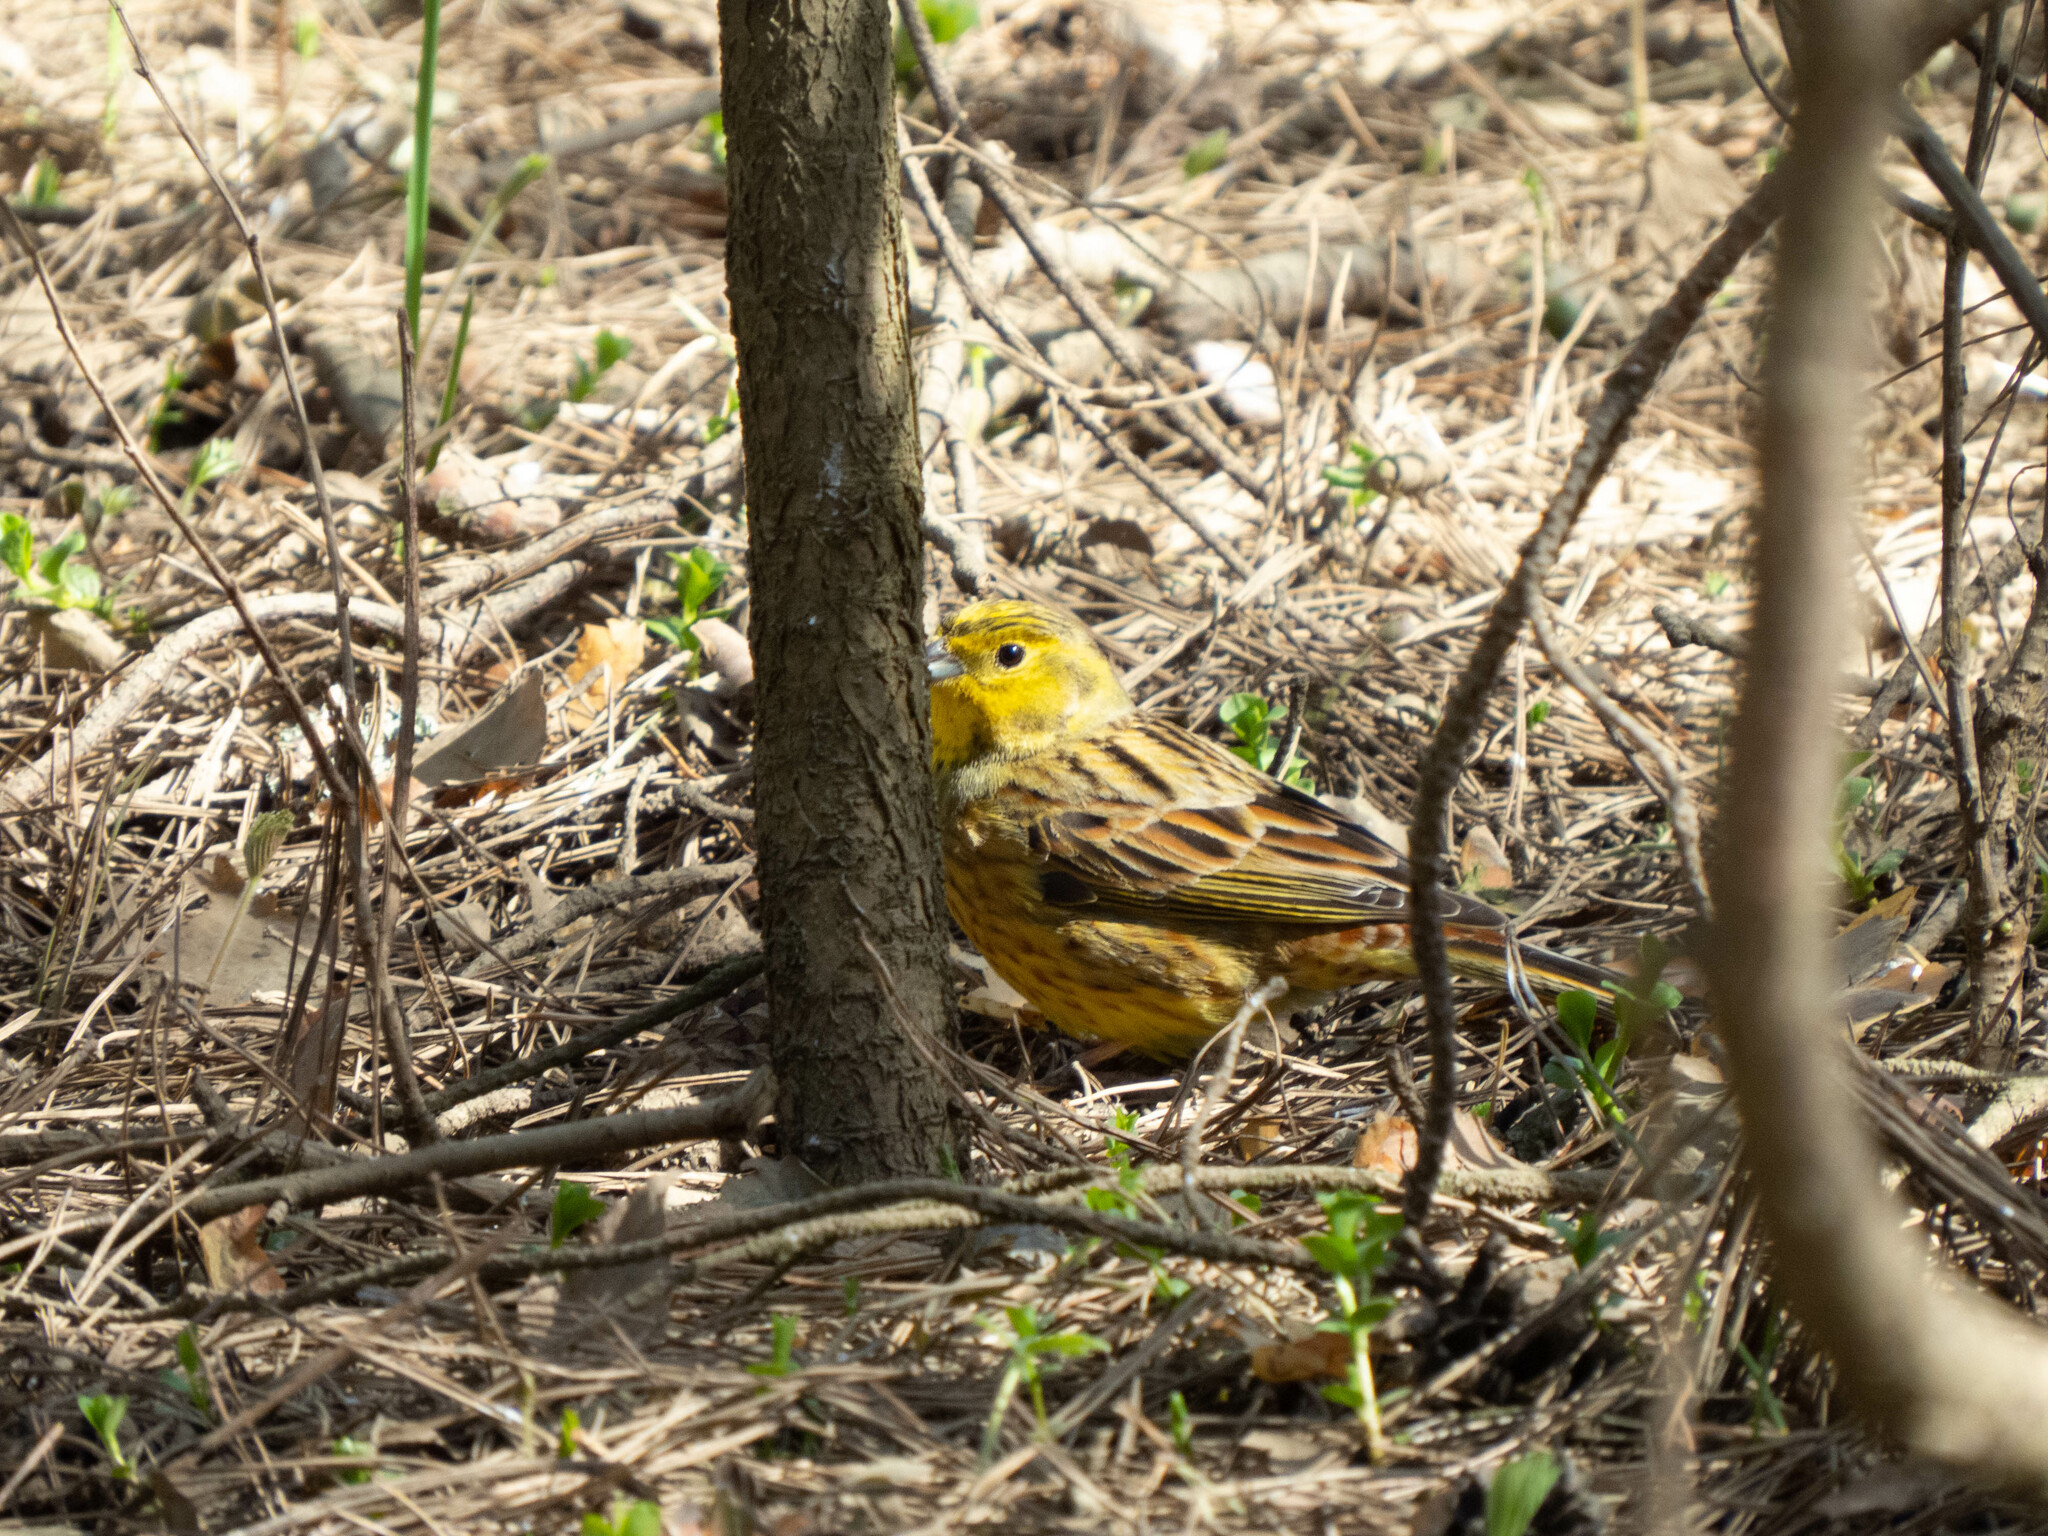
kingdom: Animalia
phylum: Chordata
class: Aves
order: Passeriformes
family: Emberizidae
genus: Emberiza
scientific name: Emberiza citrinella
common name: Yellowhammer
